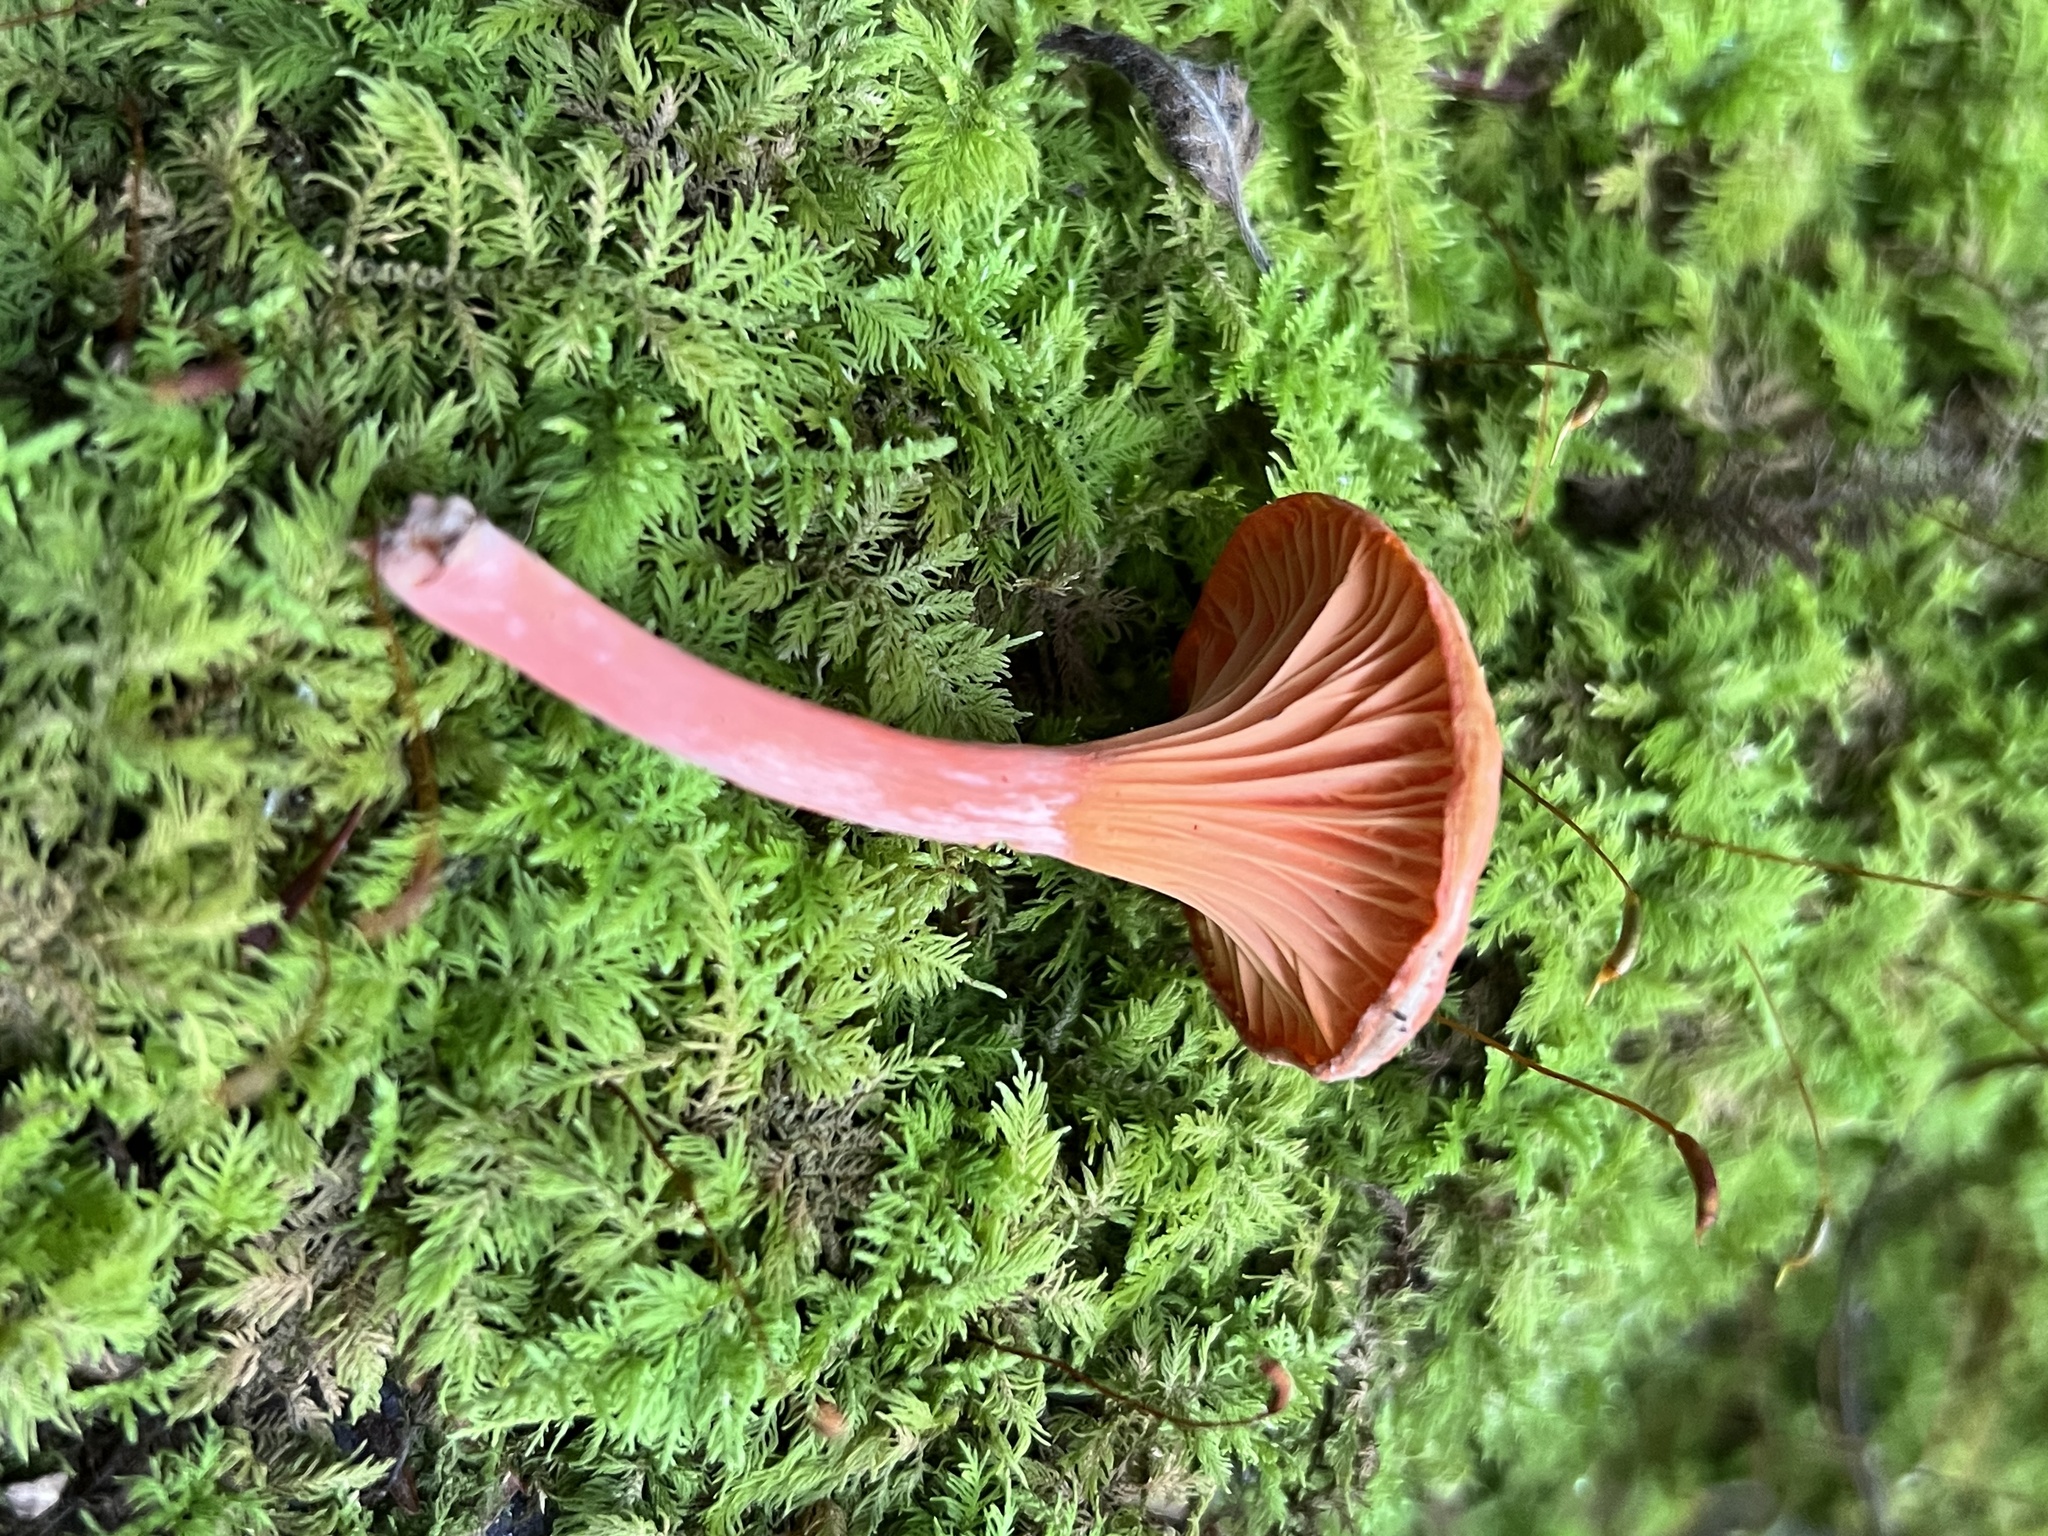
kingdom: Fungi
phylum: Basidiomycota
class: Agaricomycetes
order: Cantharellales
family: Hydnaceae
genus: Cantharellus
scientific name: Cantharellus cinnabarinus
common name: Cinnabar chanterelle
